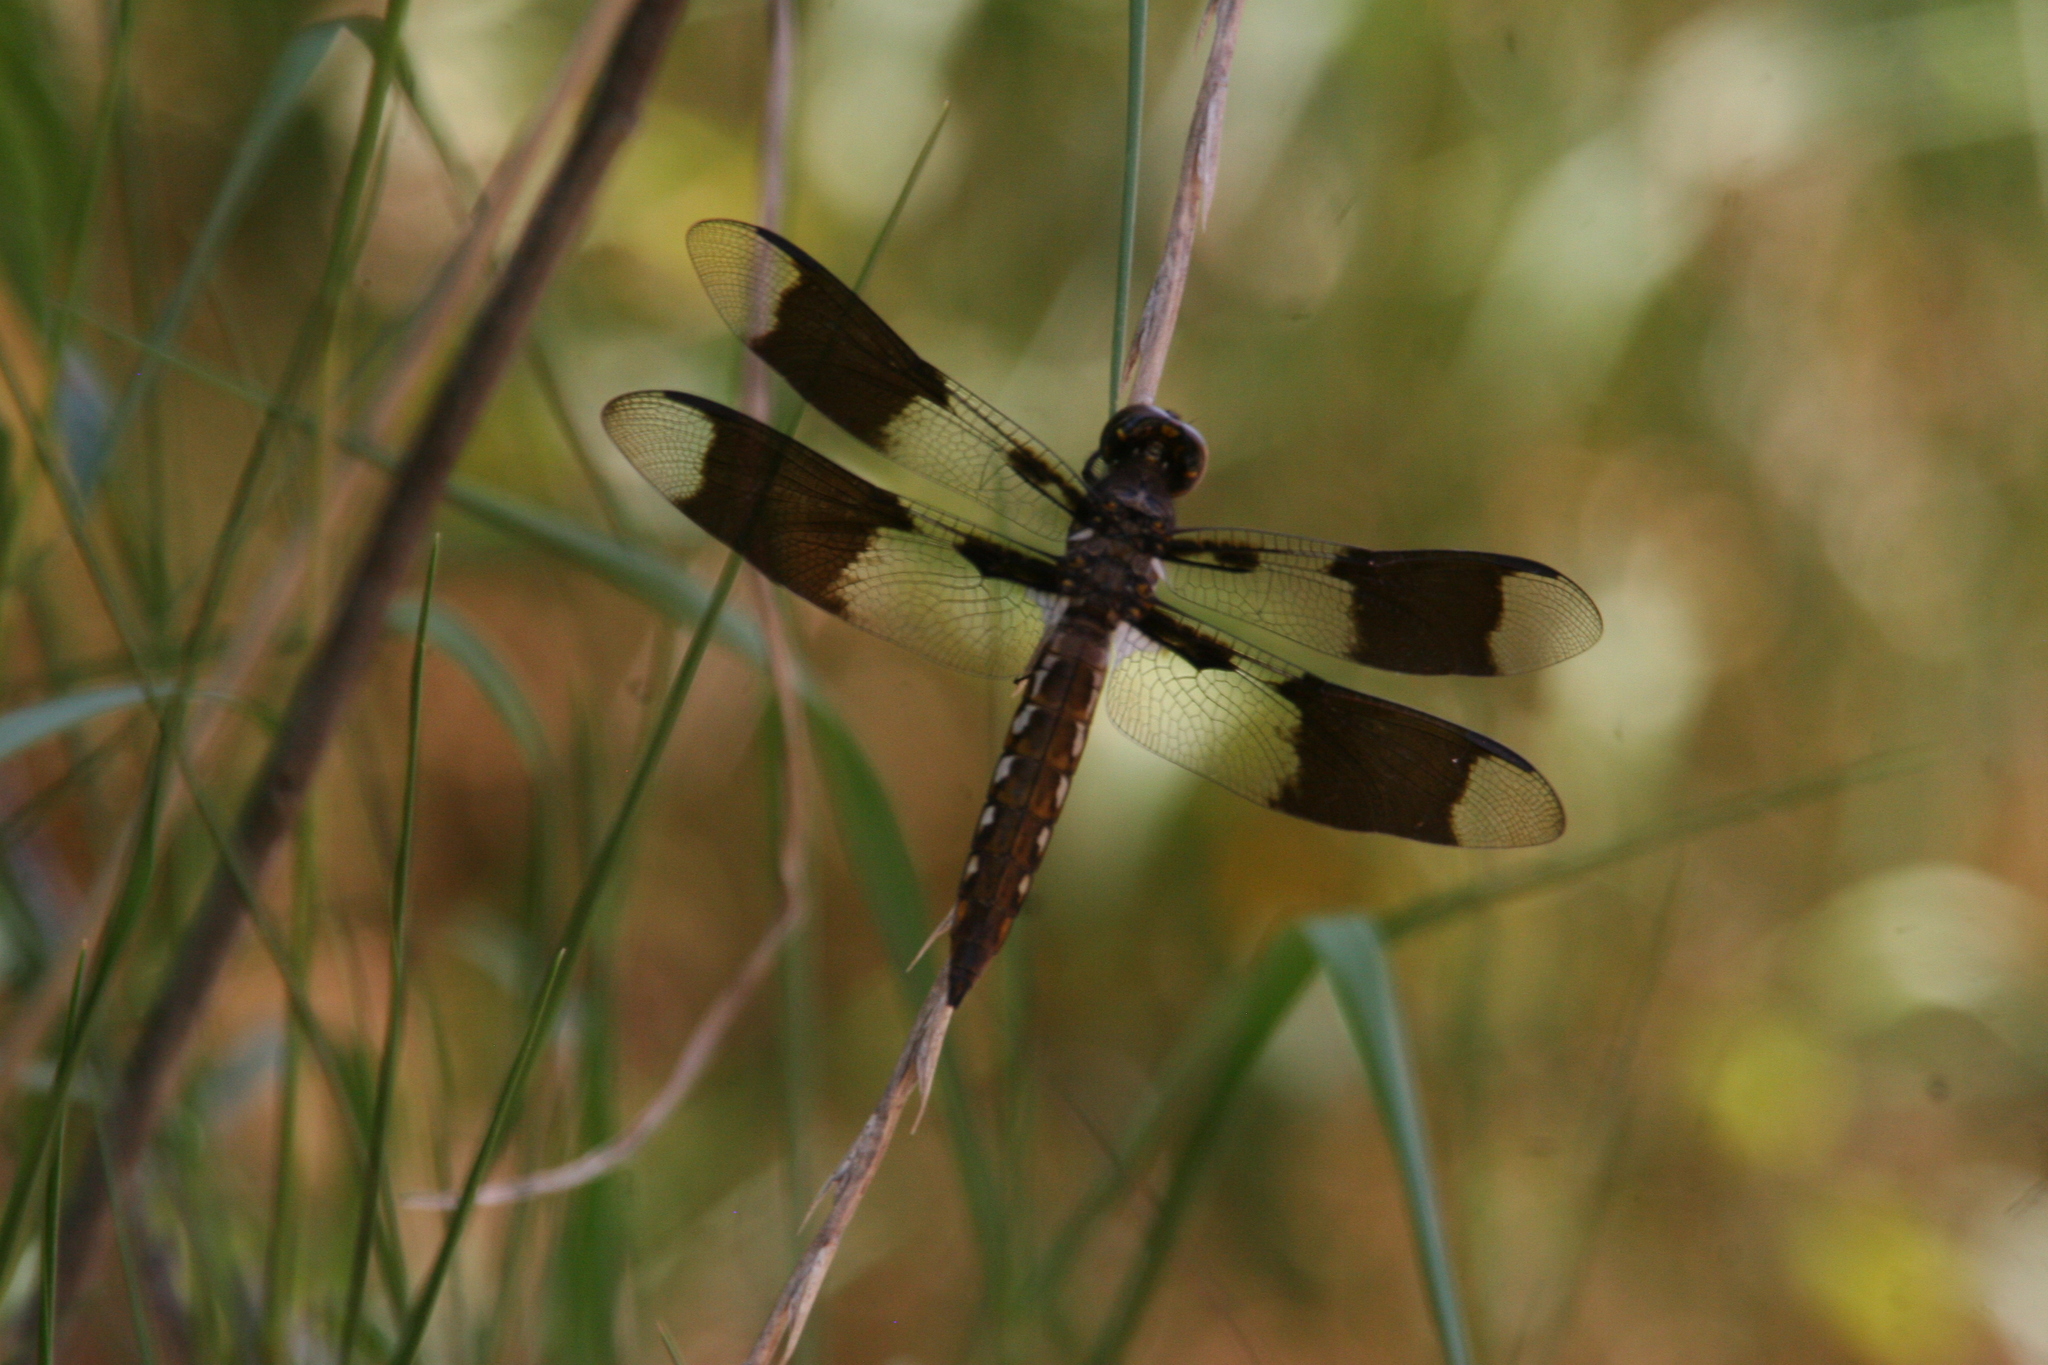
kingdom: Animalia
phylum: Arthropoda
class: Insecta
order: Odonata
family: Libellulidae
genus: Plathemis
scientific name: Plathemis lydia
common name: Common whitetail
